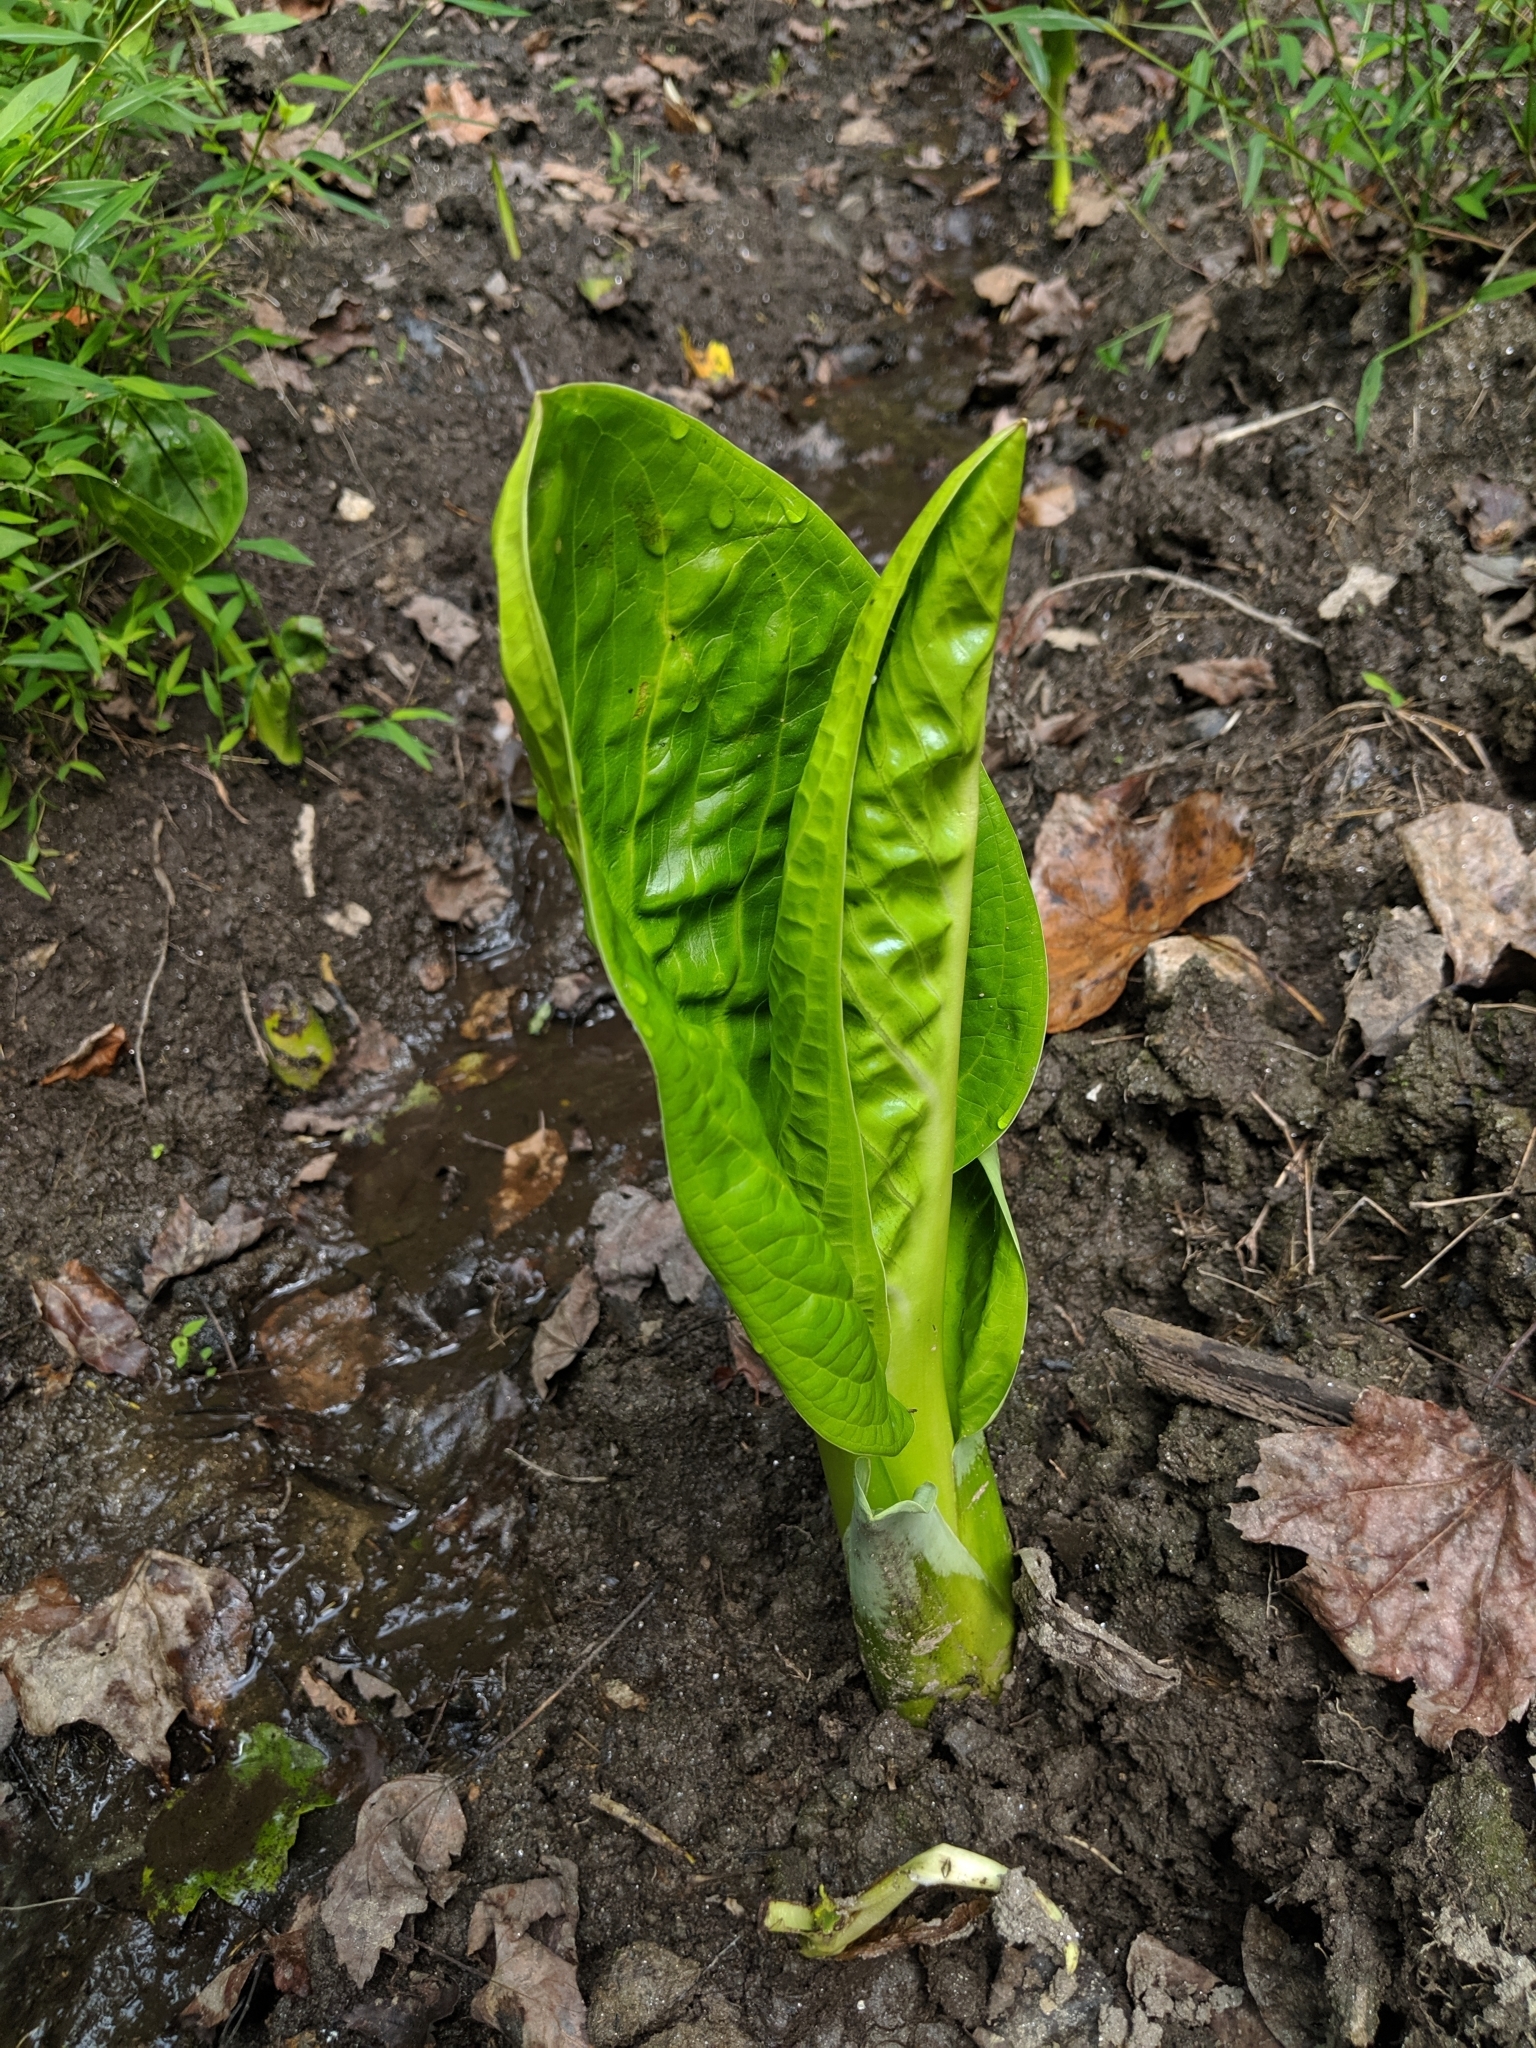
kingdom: Plantae
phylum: Tracheophyta
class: Liliopsida
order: Alismatales
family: Araceae
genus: Symplocarpus
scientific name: Symplocarpus foetidus
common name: Eastern skunk cabbage
